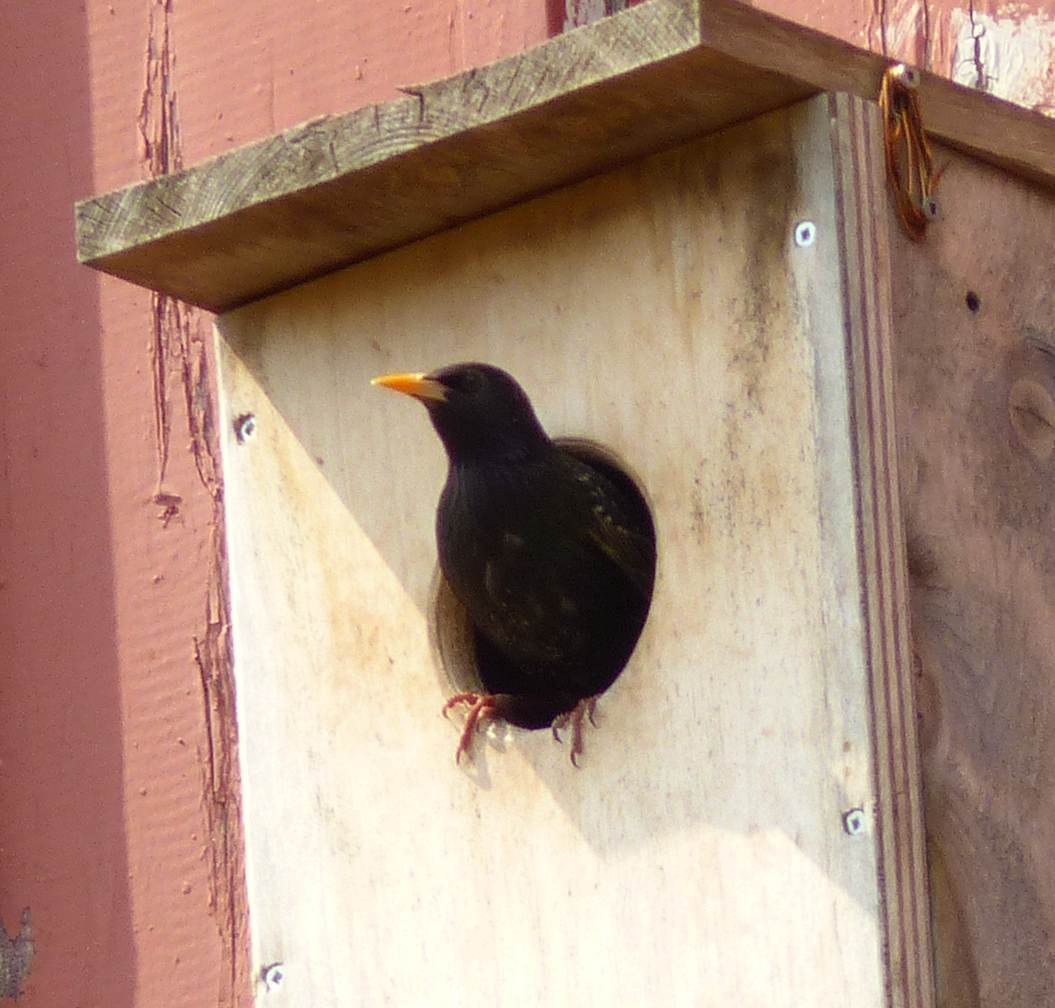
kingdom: Animalia
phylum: Chordata
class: Aves
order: Passeriformes
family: Sturnidae
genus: Sturnus
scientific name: Sturnus vulgaris
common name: Common starling
